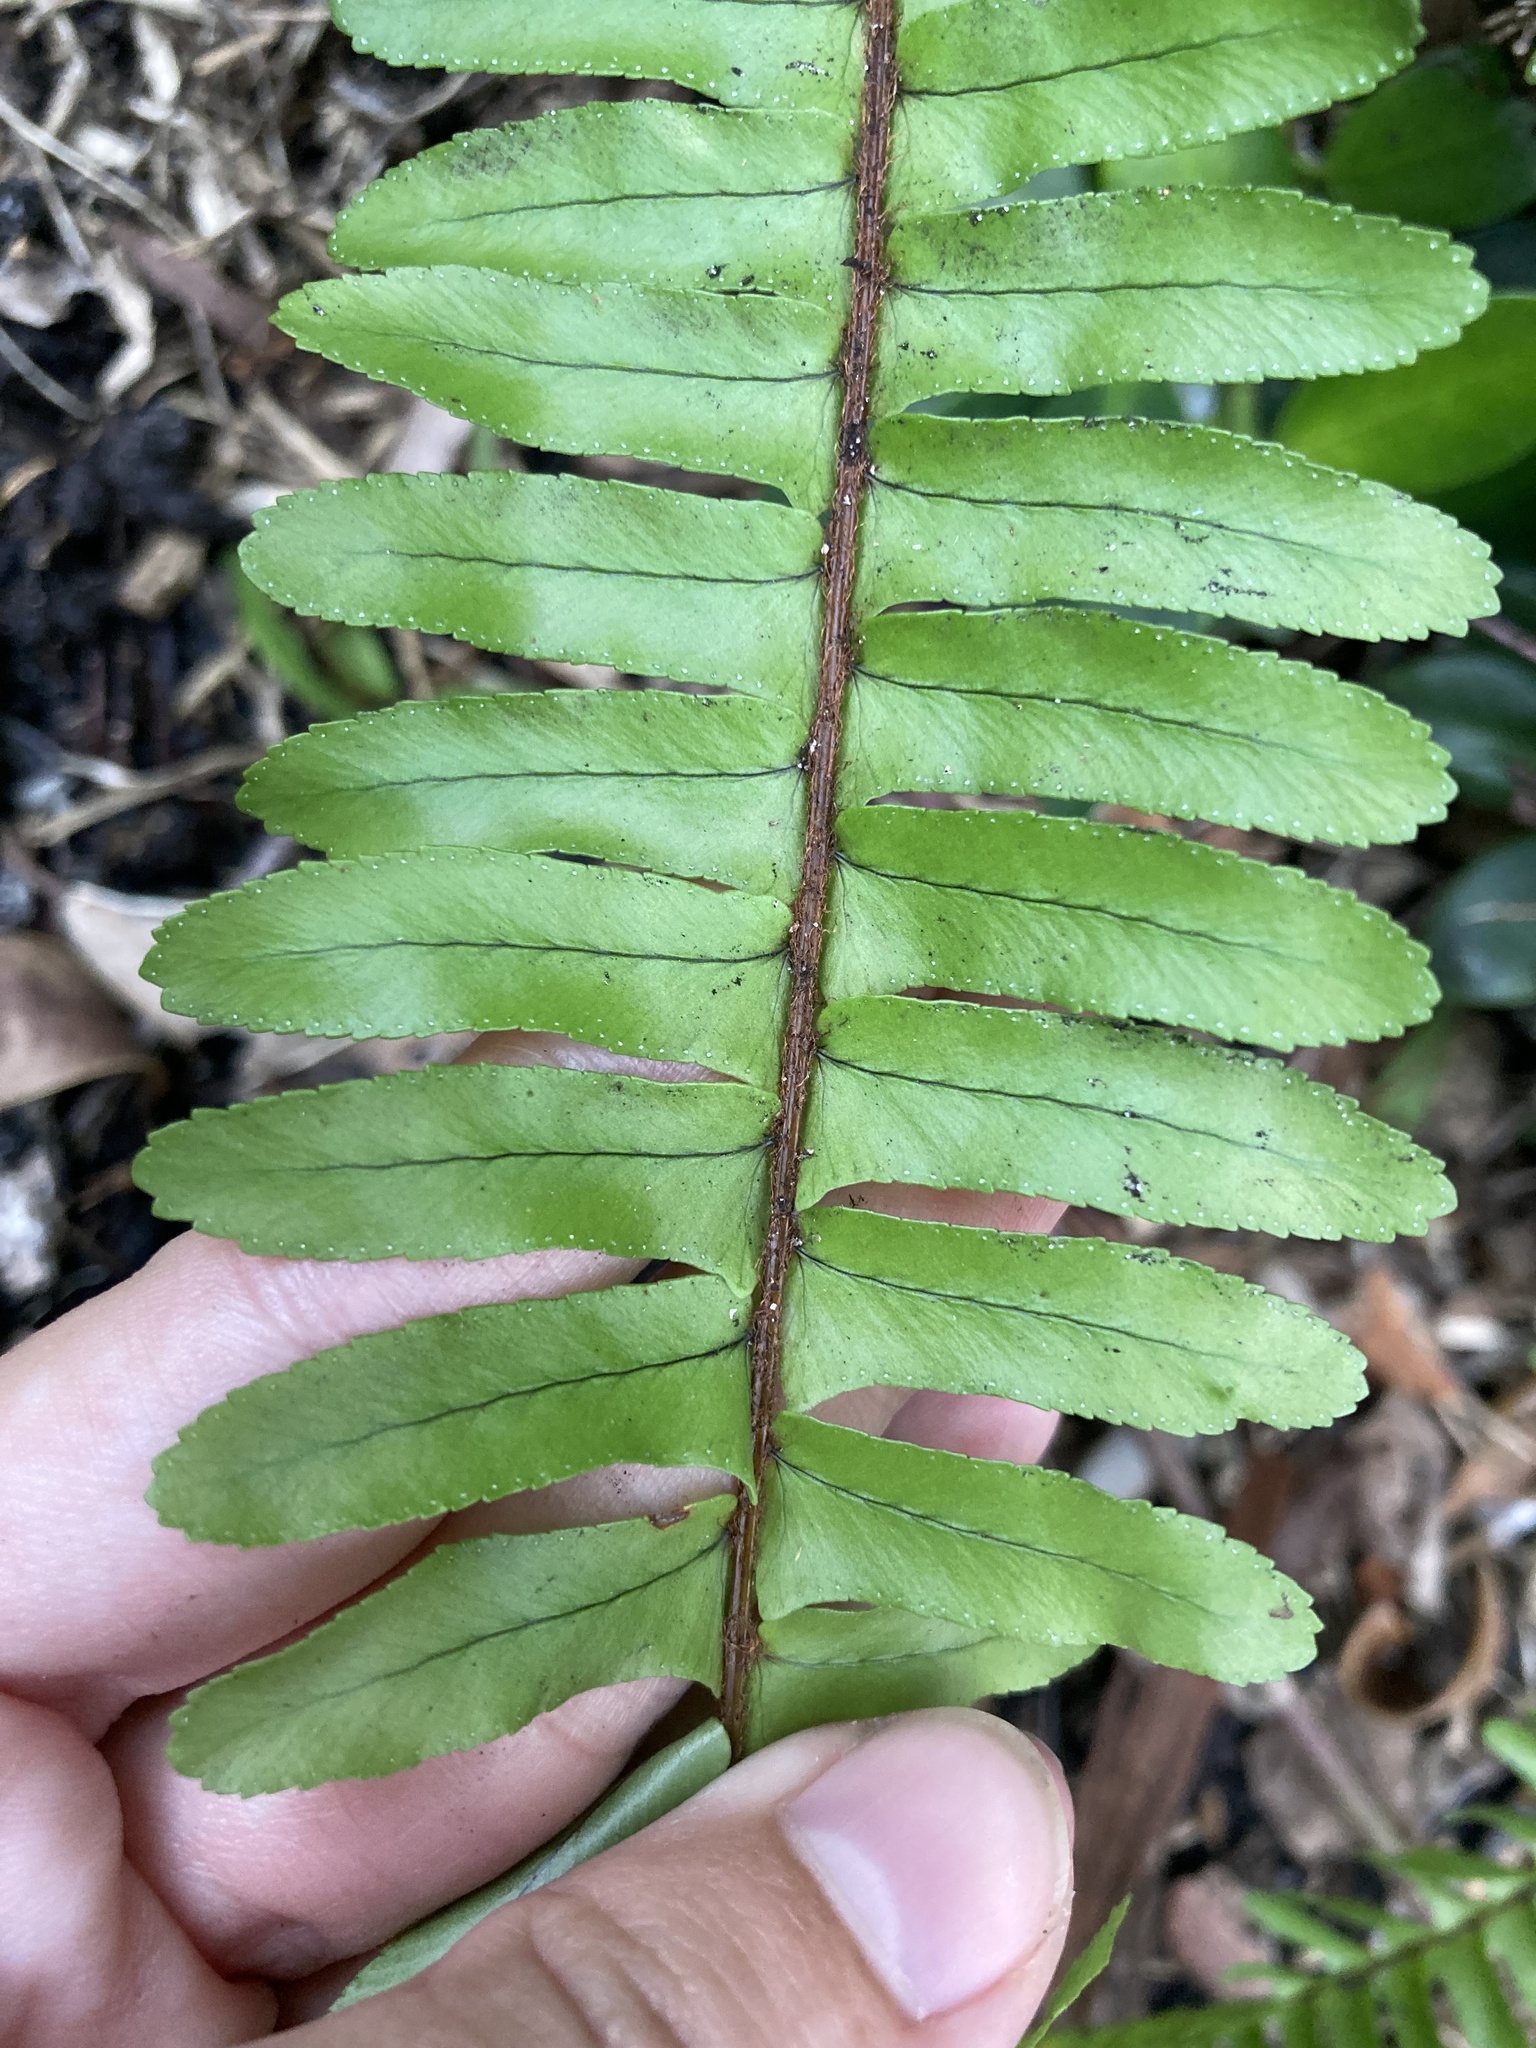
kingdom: Plantae
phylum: Tracheophyta
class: Polypodiopsida
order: Polypodiales
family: Nephrolepidaceae
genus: Nephrolepis
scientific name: Nephrolepis cordifolia
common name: Narrow swordfern
